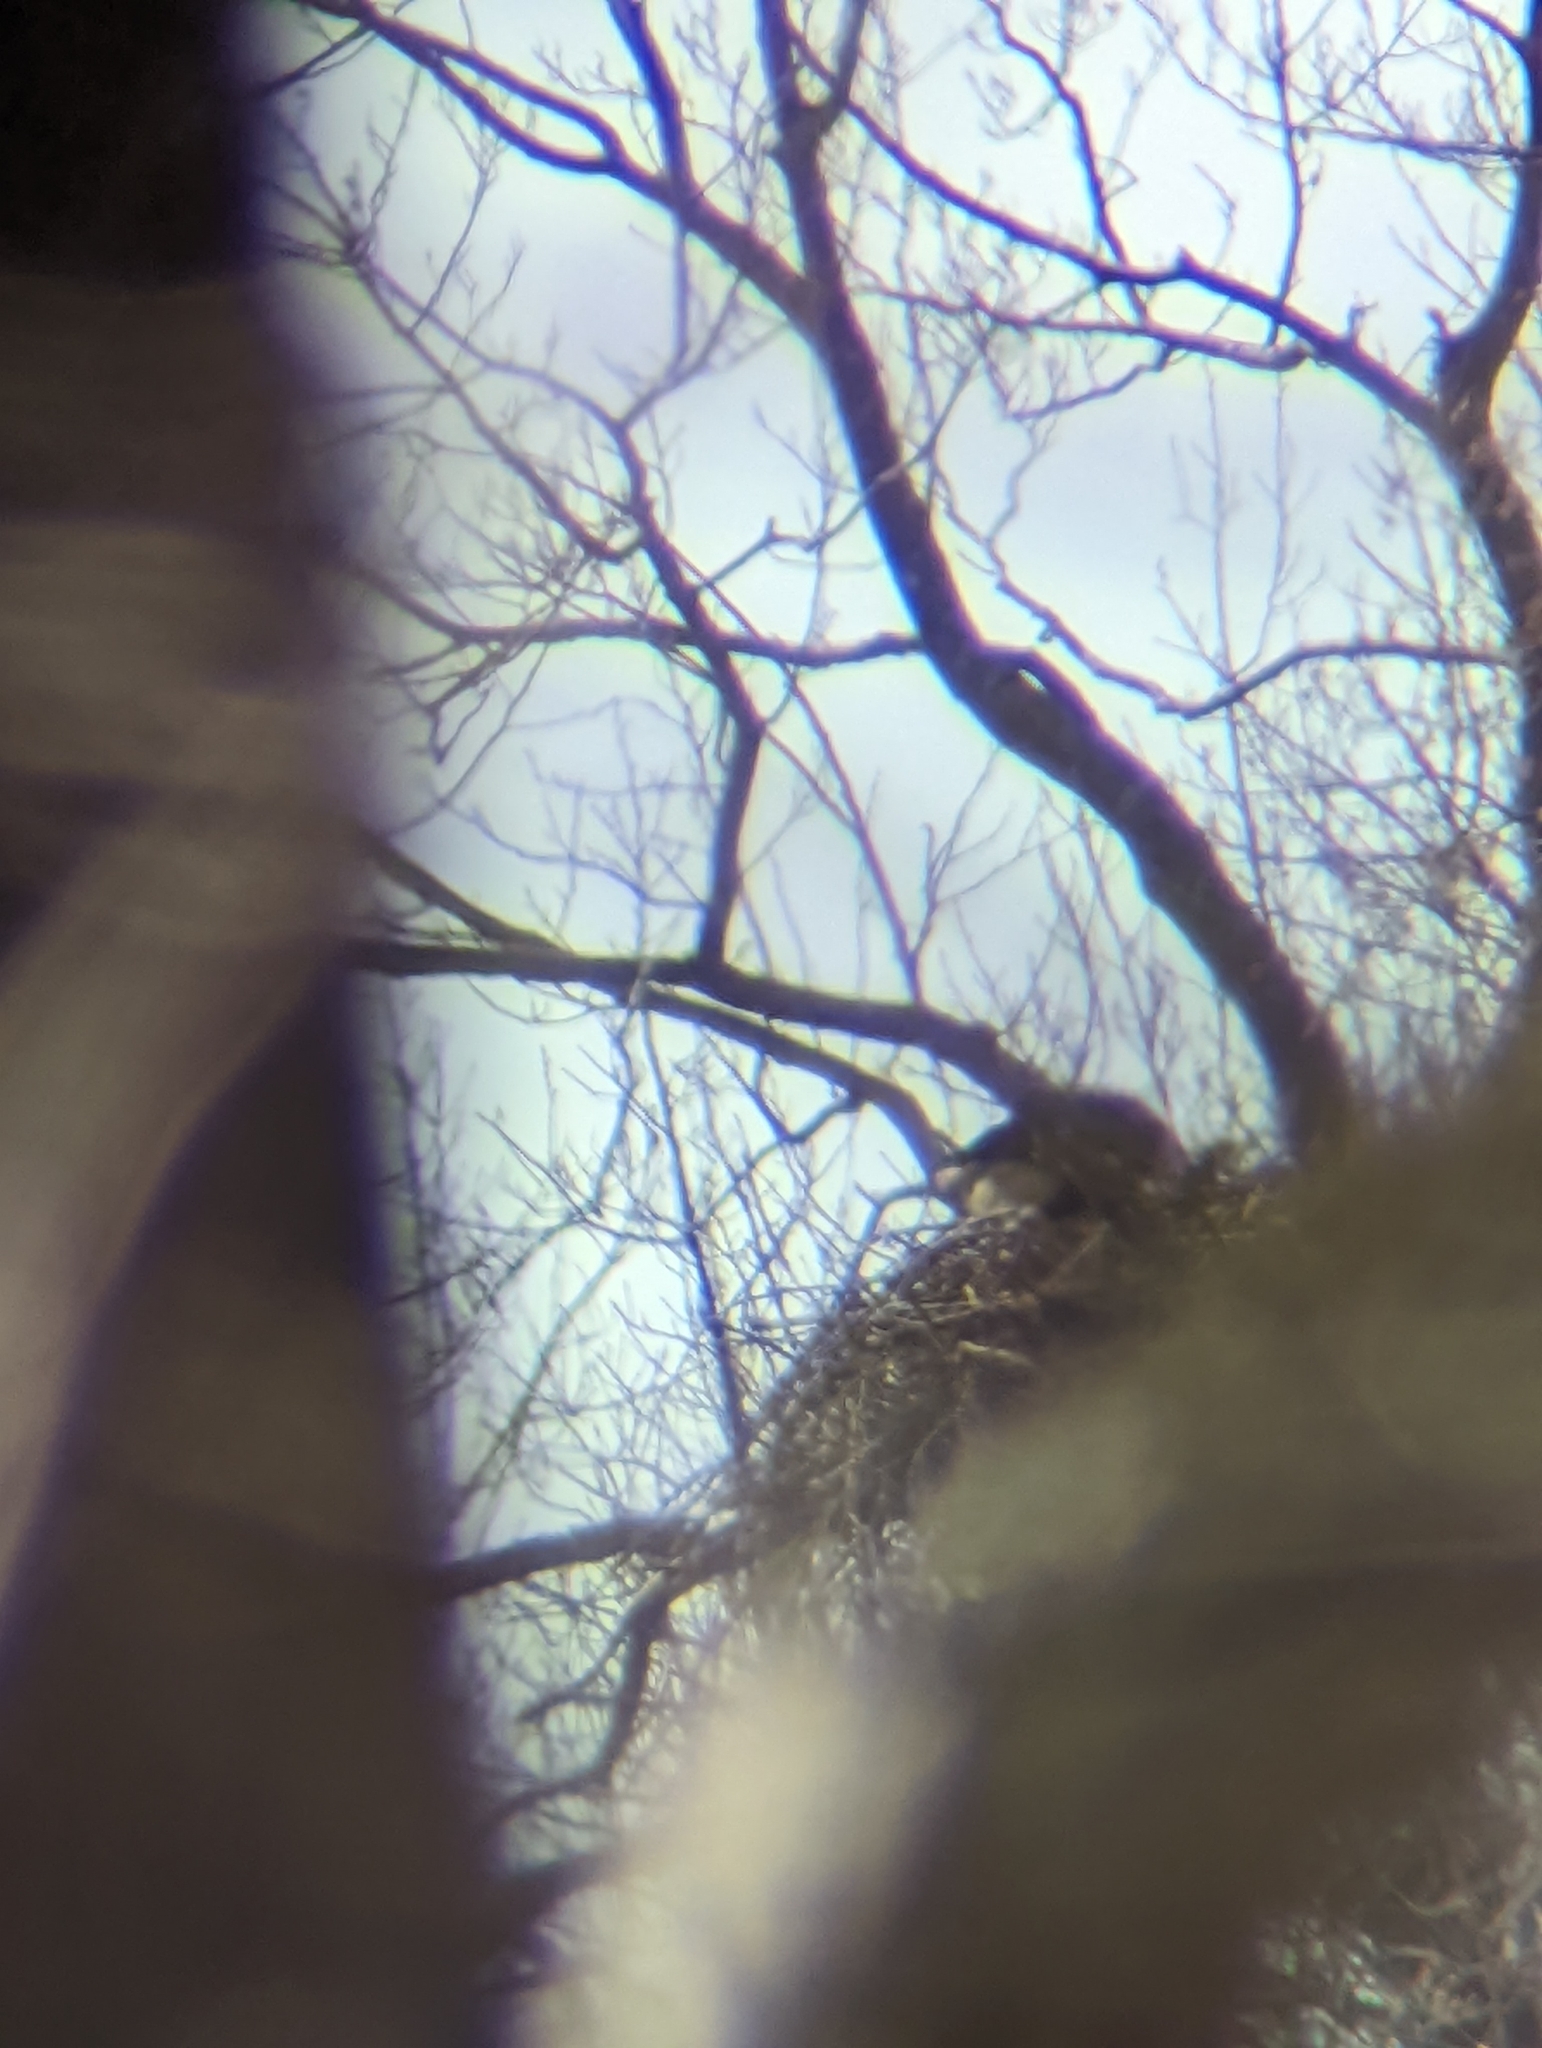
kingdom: Animalia
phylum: Chordata
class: Aves
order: Accipitriformes
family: Accipitridae
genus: Haliaeetus
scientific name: Haliaeetus leucocephalus
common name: Bald eagle
